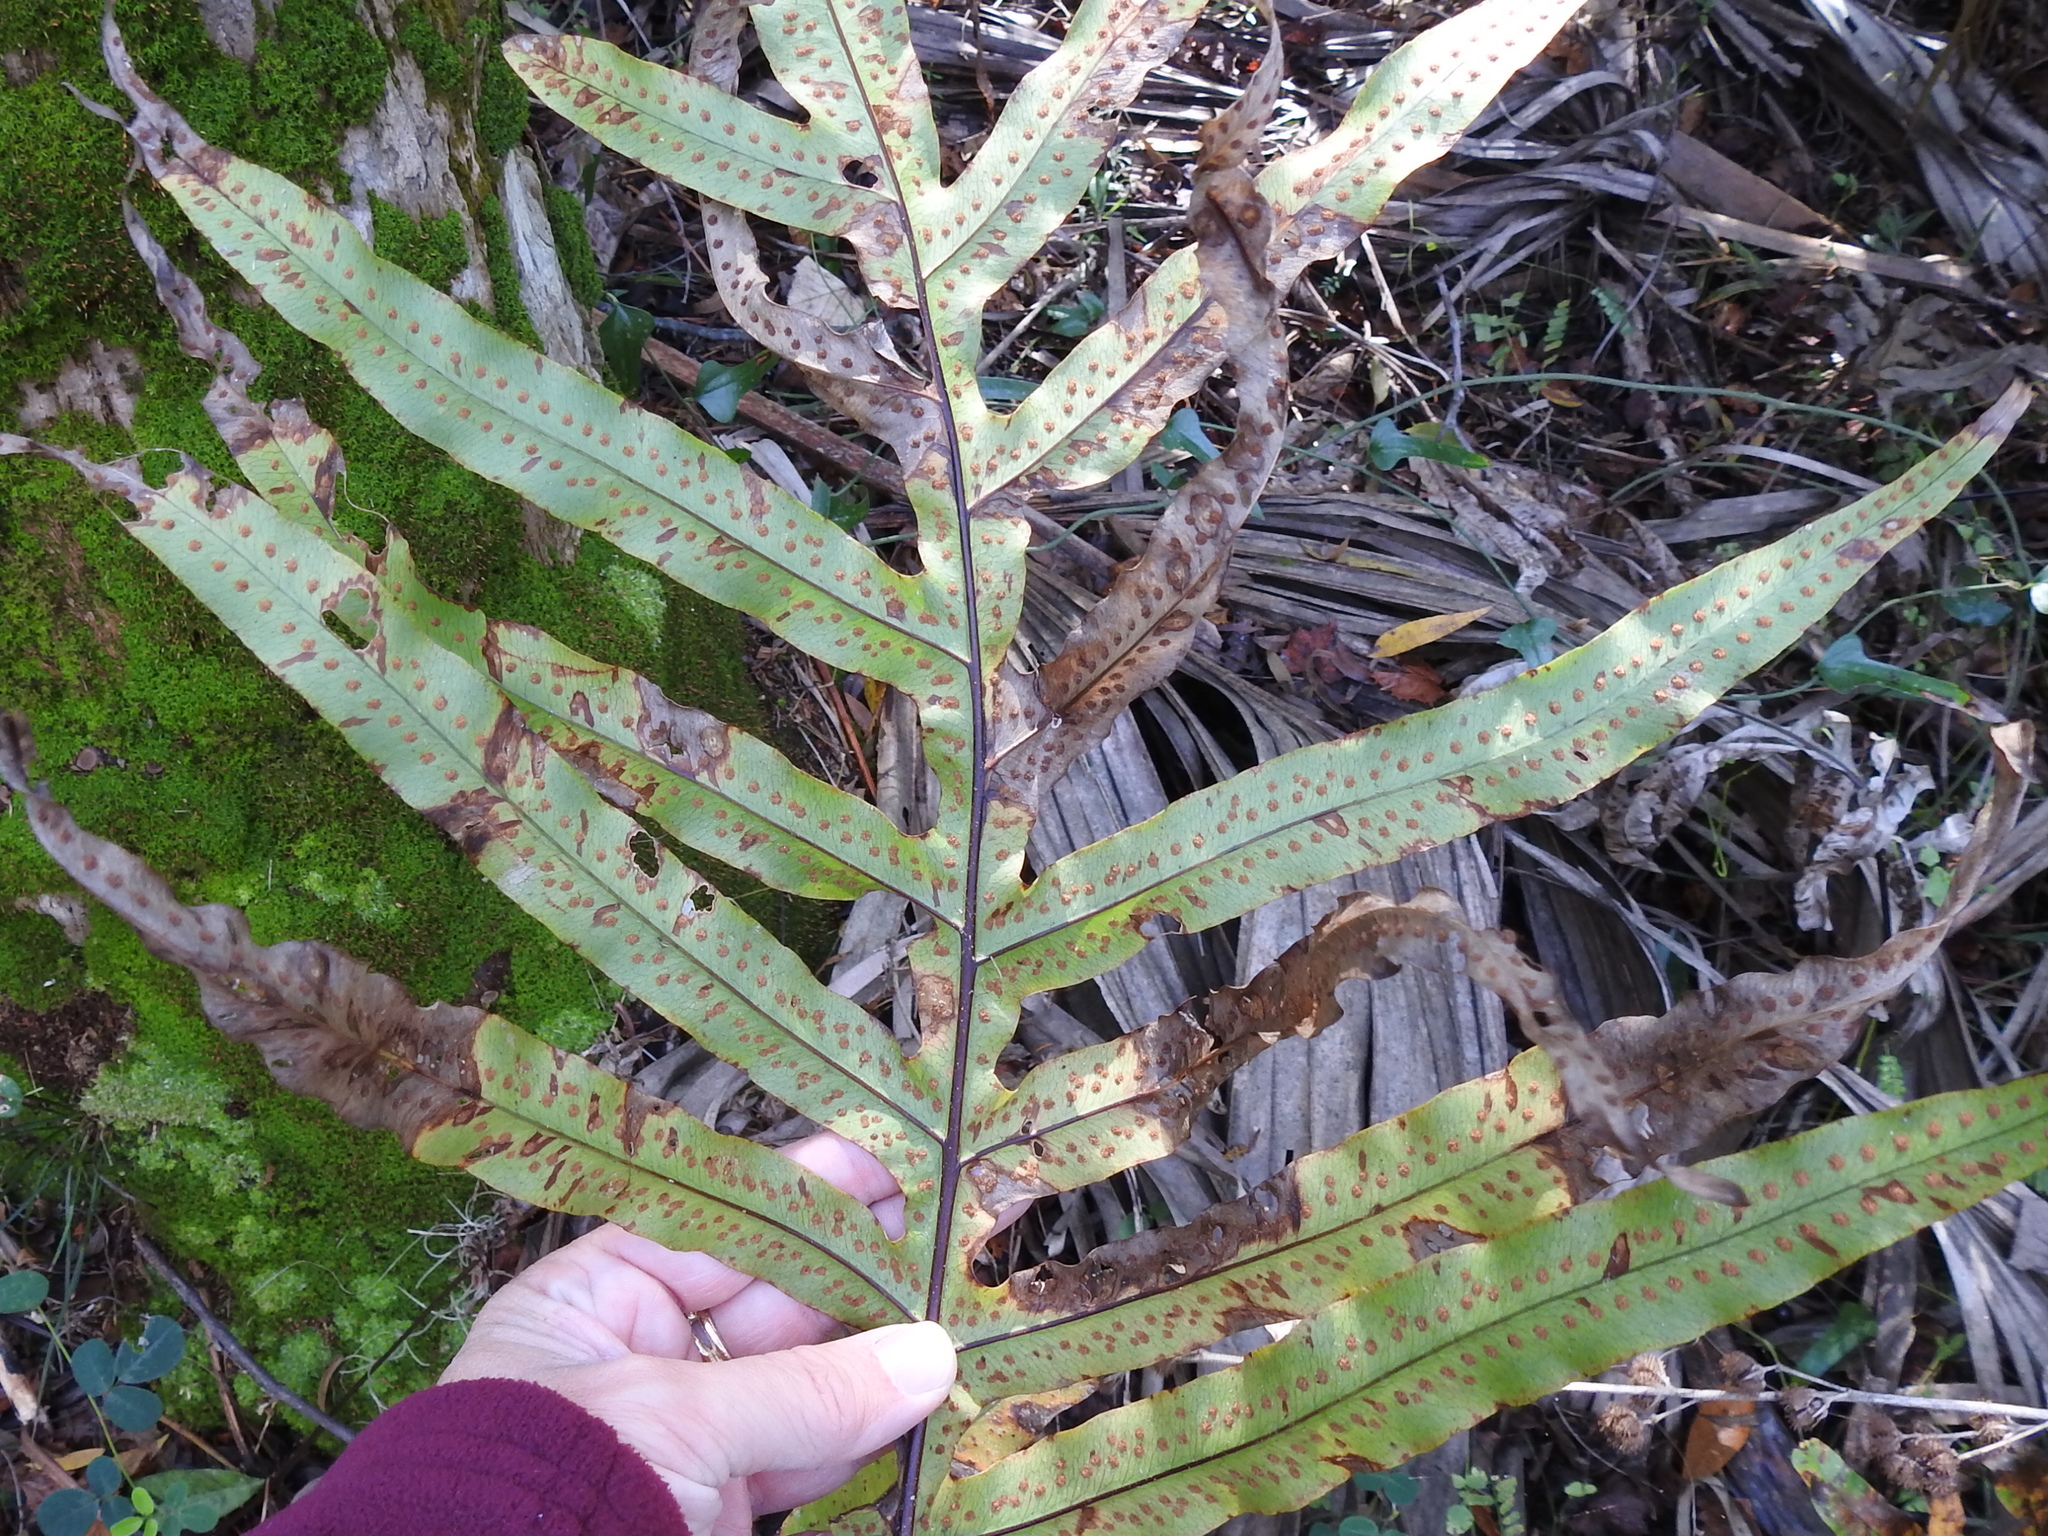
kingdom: Plantae
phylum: Tracheophyta
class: Polypodiopsida
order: Polypodiales
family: Polypodiaceae
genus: Phlebodium
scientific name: Phlebodium aureum
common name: Gold-foot fern
